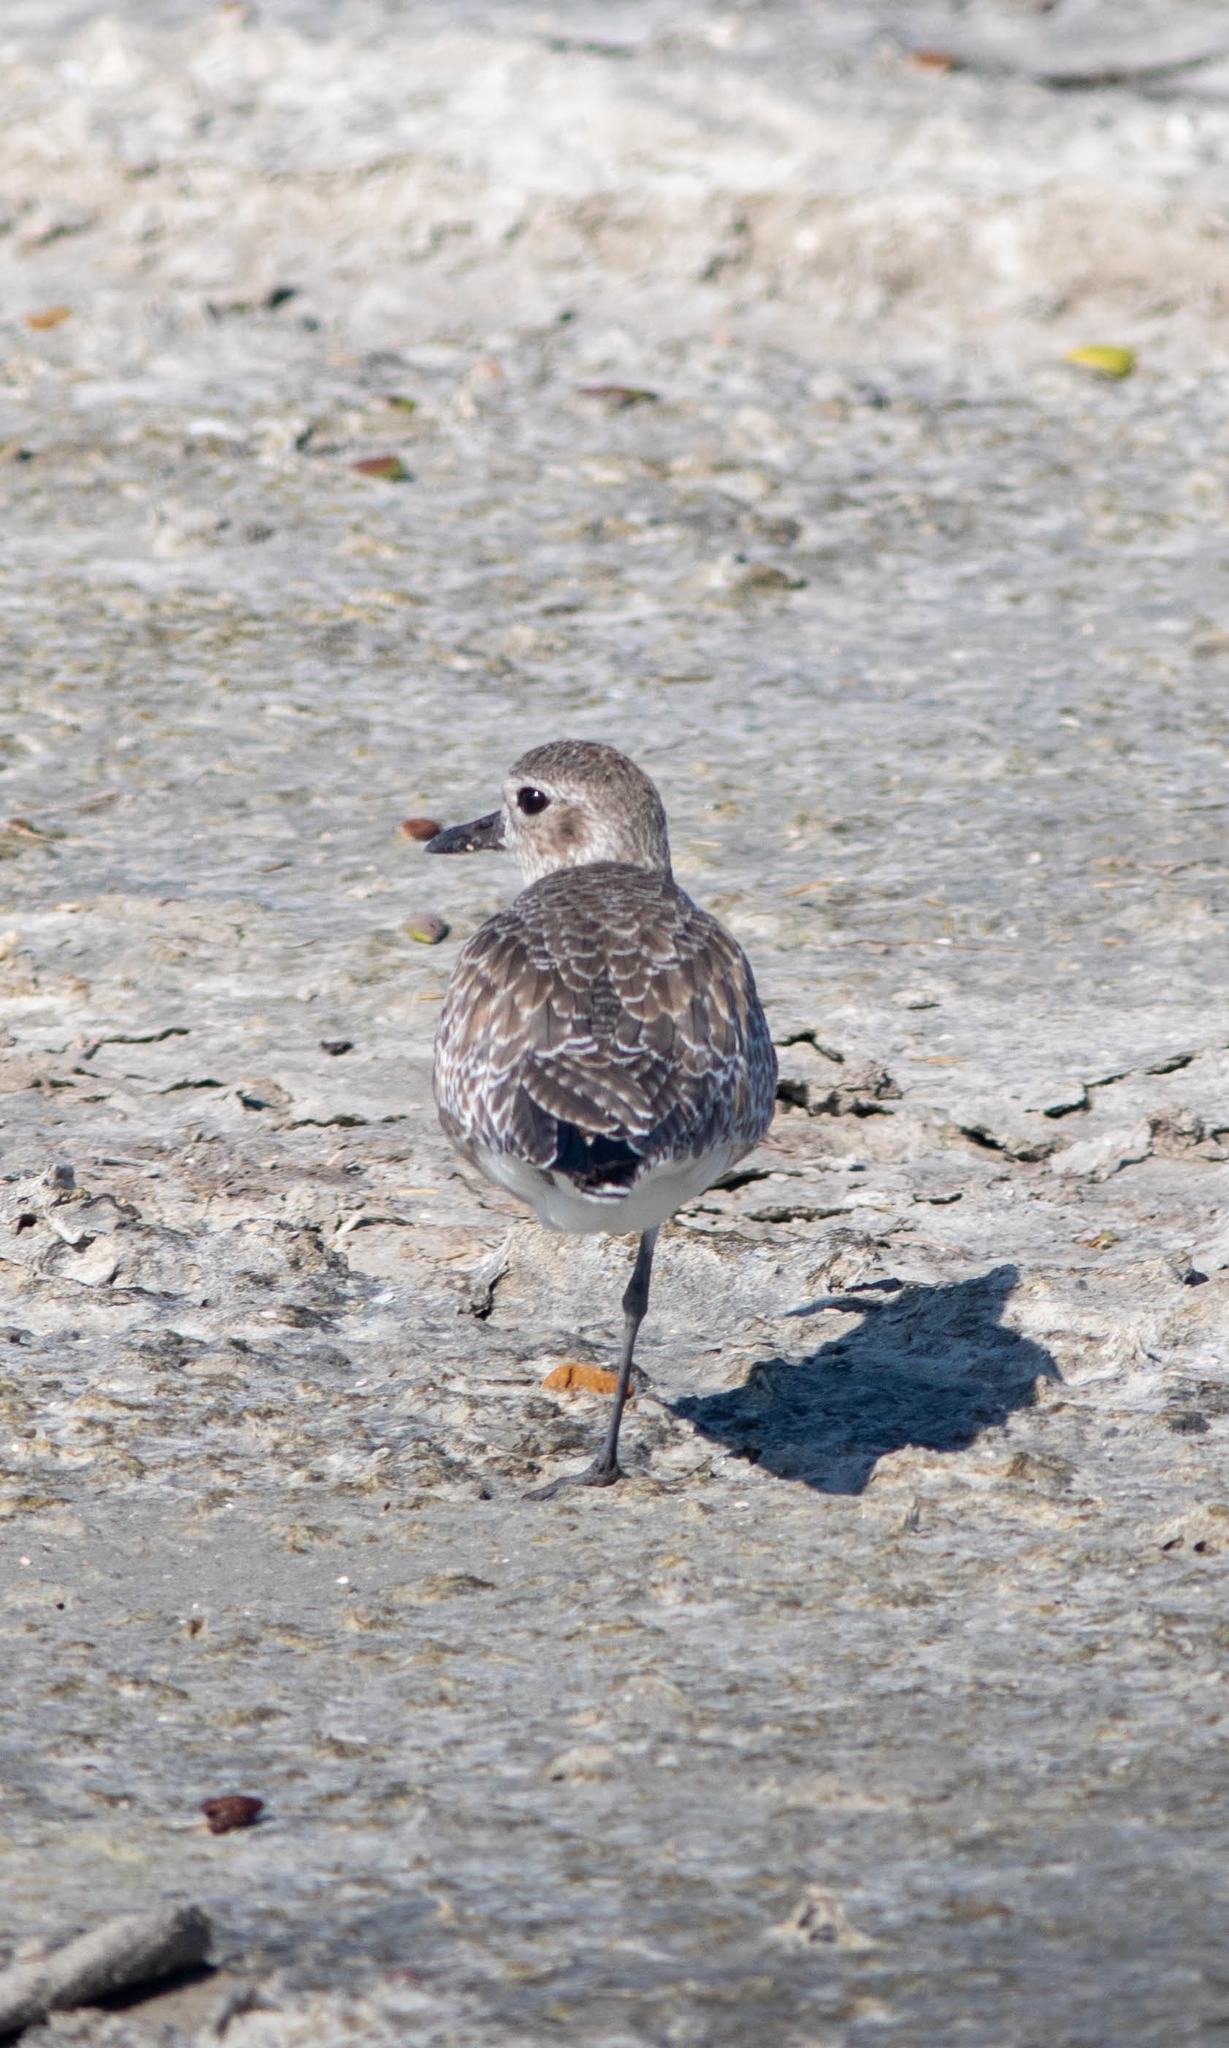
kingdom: Animalia
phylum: Chordata
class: Aves
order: Charadriiformes
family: Charadriidae
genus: Pluvialis
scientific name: Pluvialis squatarola
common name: Grey plover
